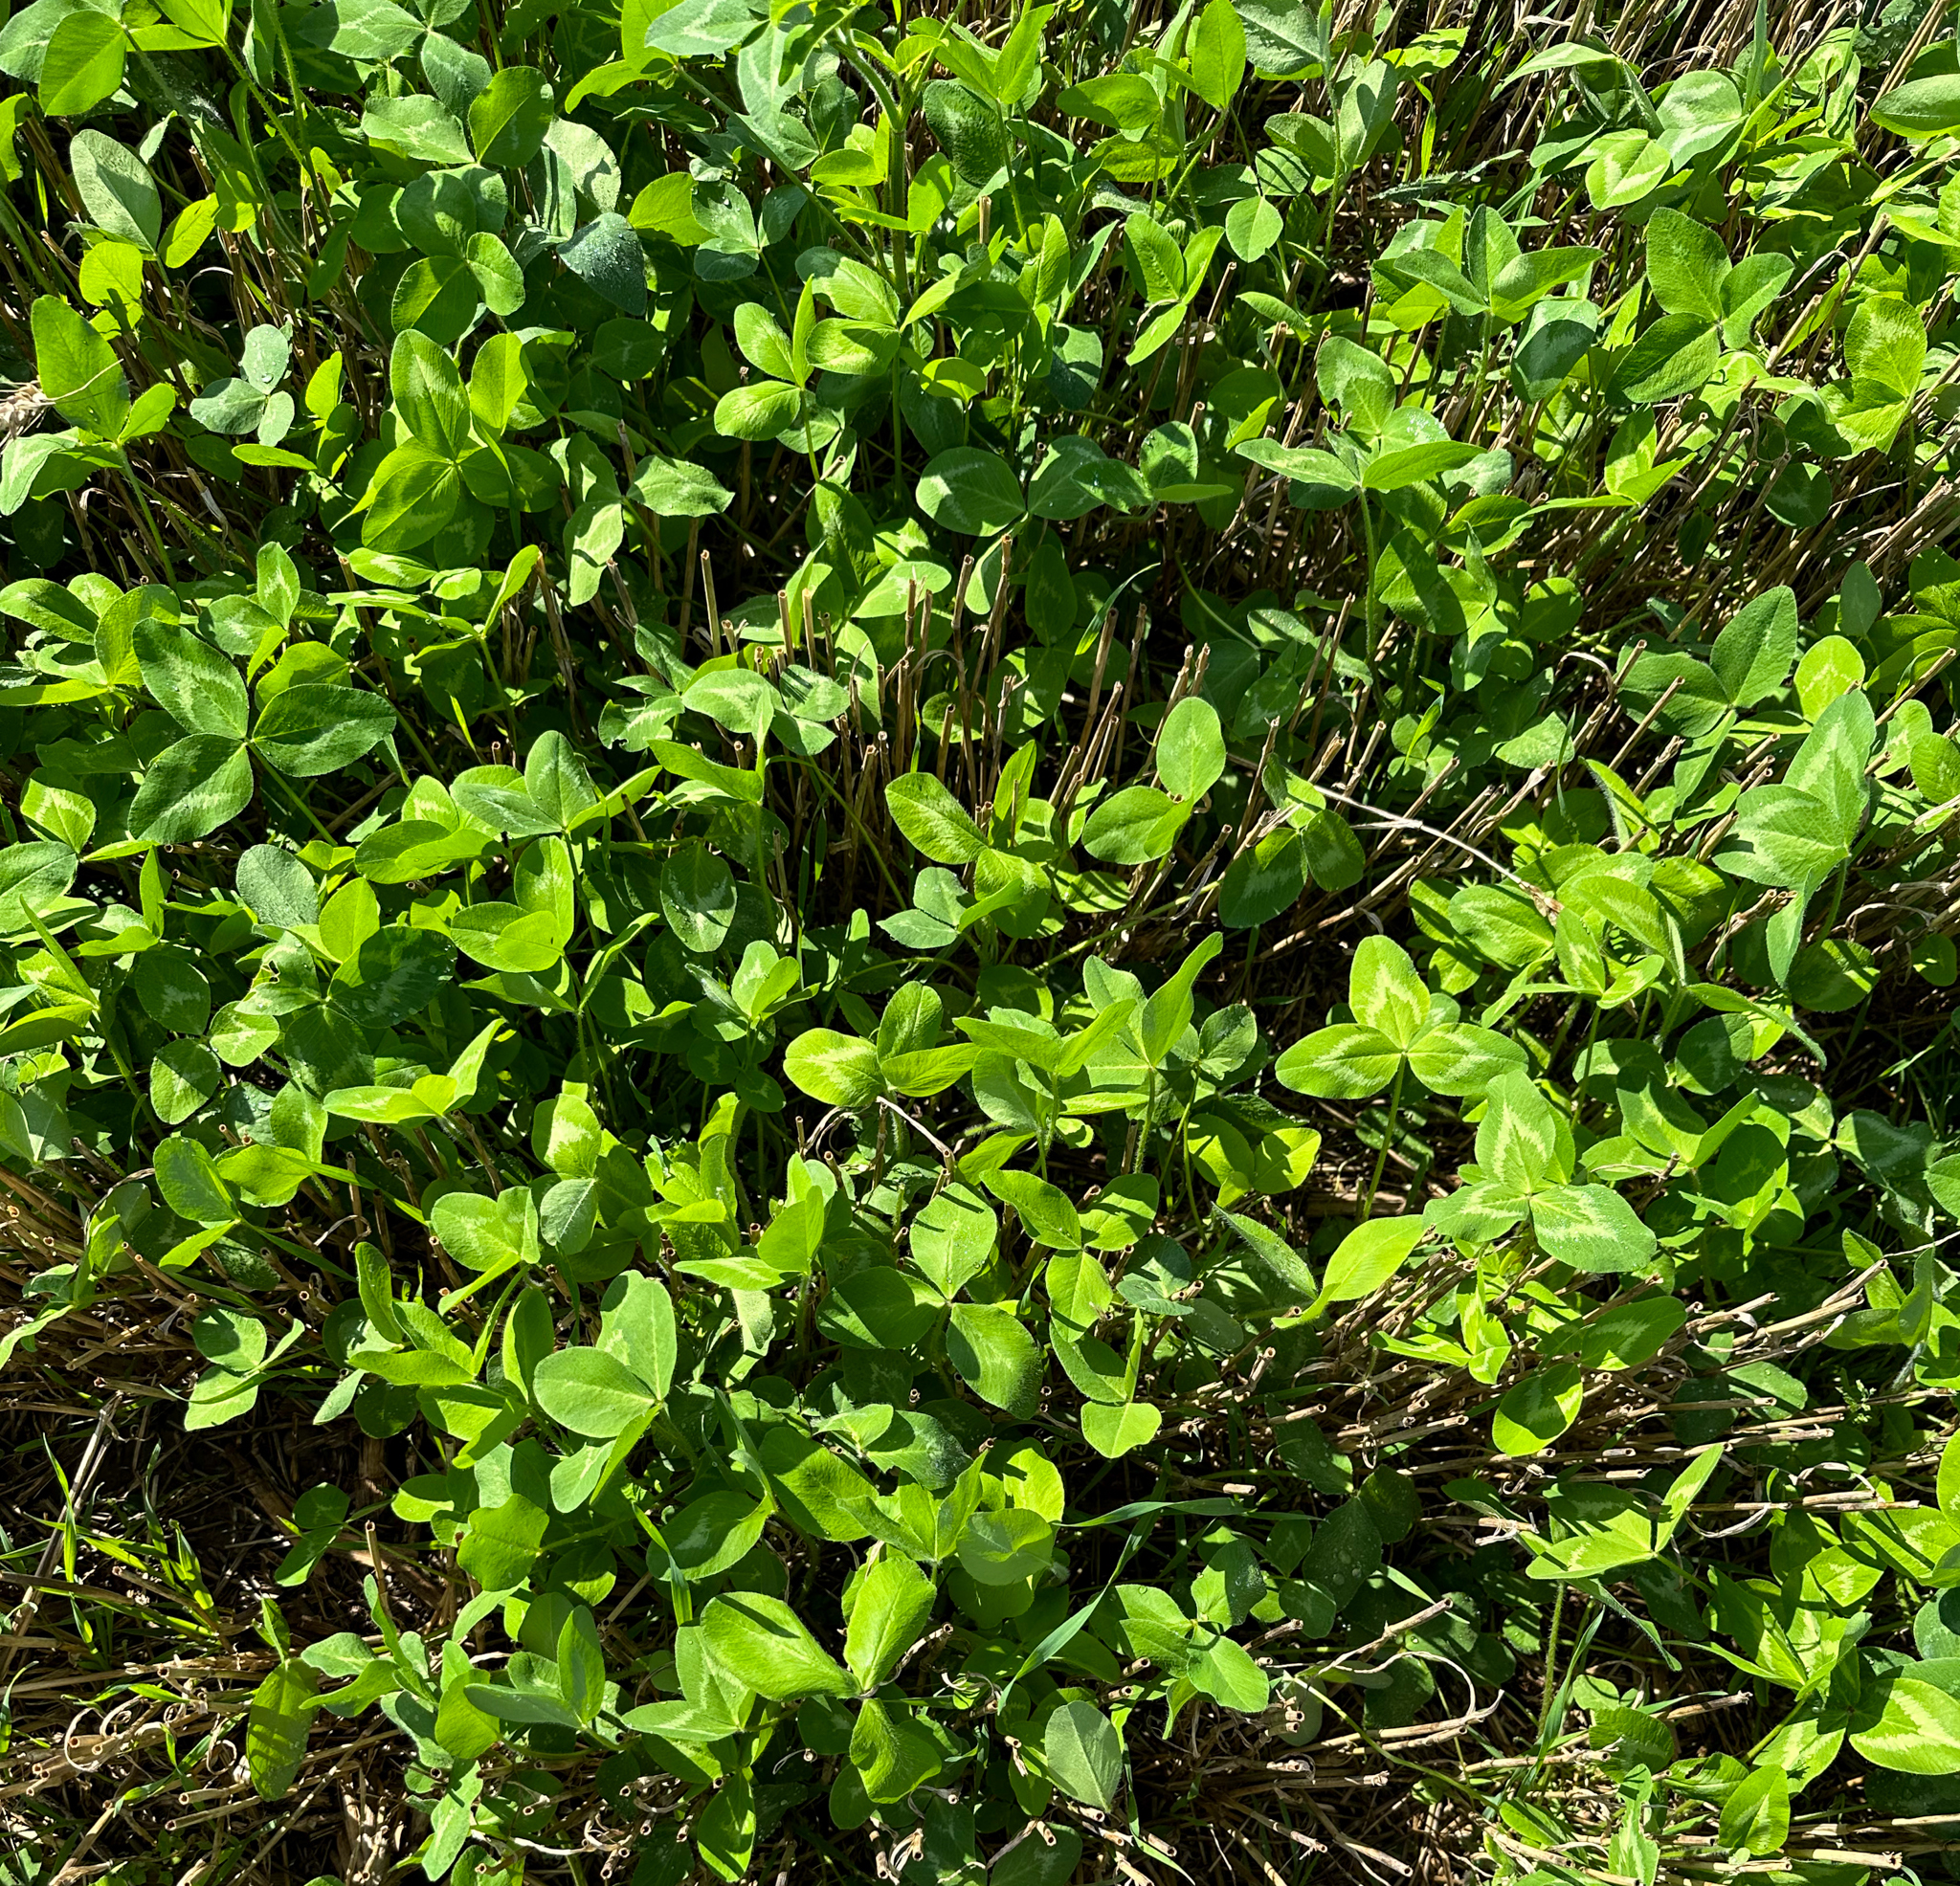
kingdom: Plantae
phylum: Tracheophyta
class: Magnoliopsida
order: Fabales
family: Fabaceae
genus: Trifolium
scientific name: Trifolium pratense
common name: Red clover
